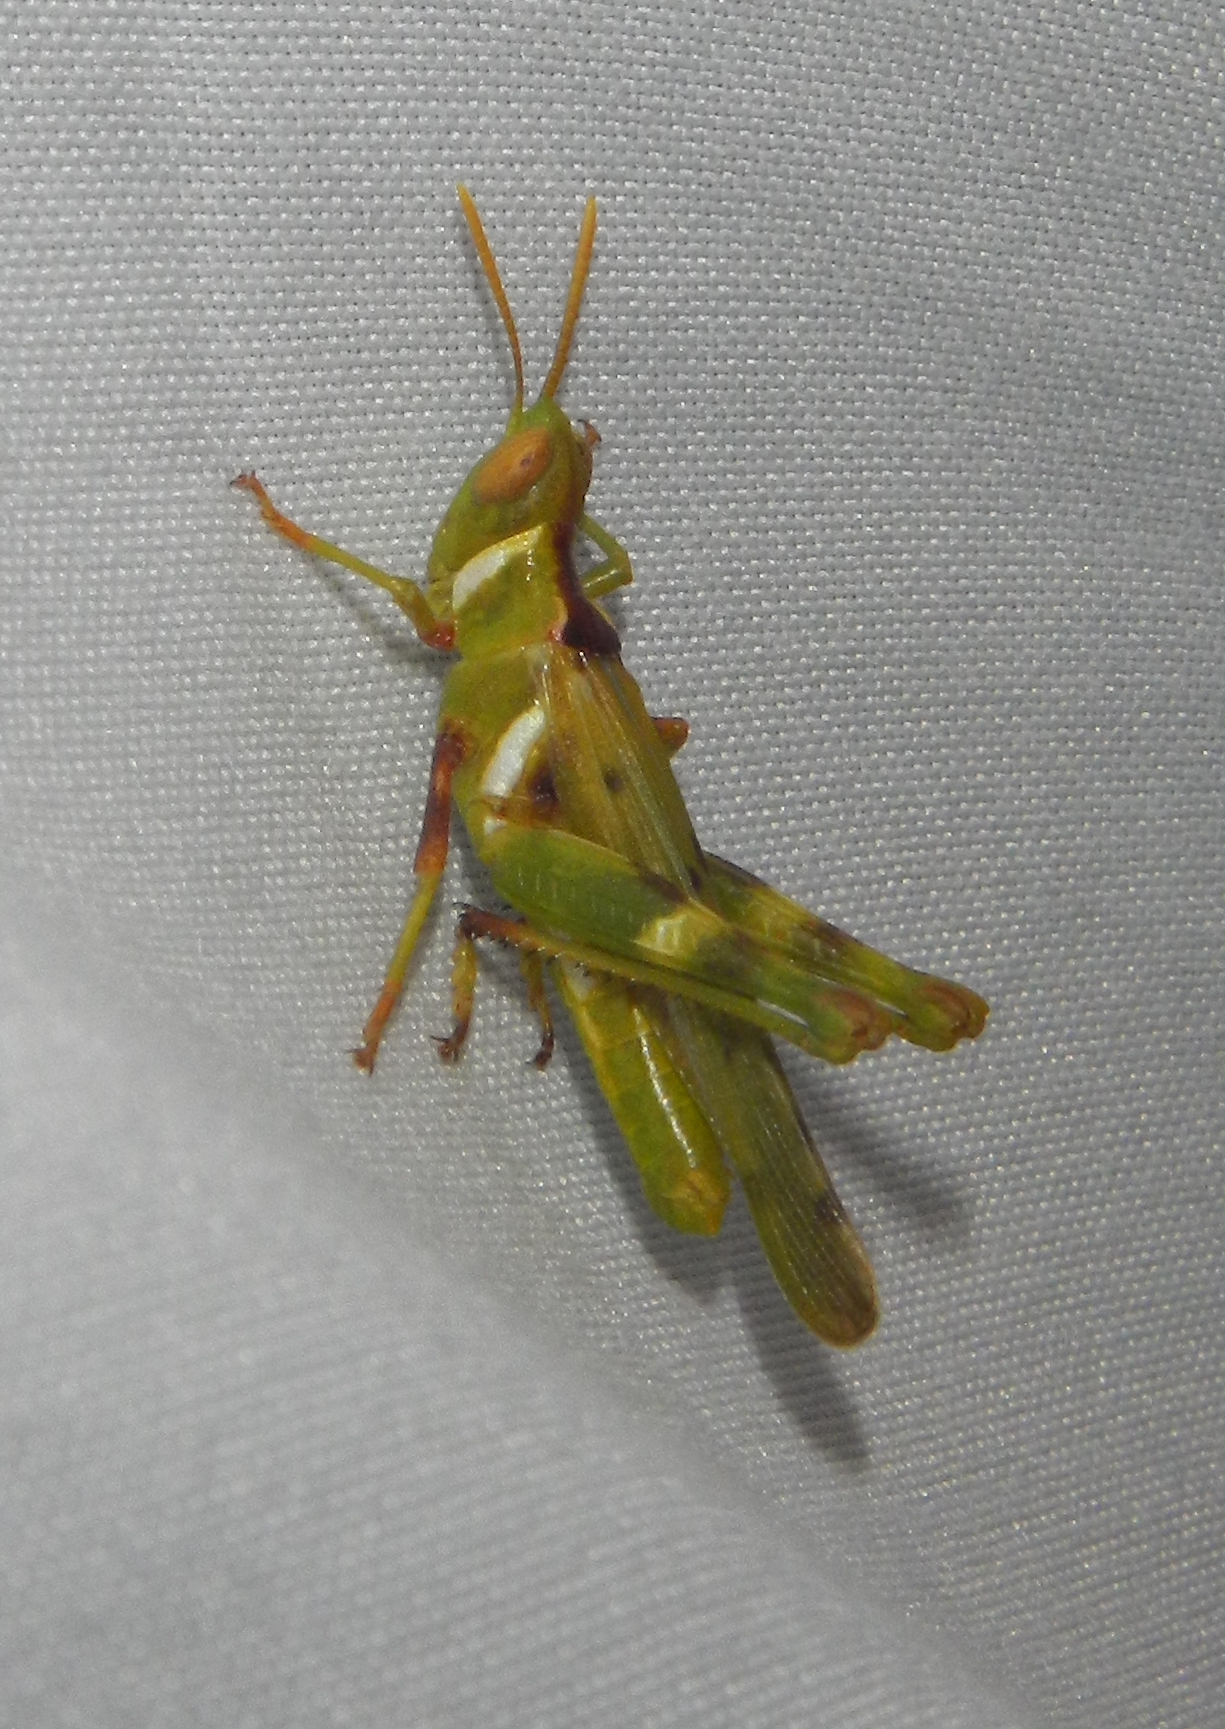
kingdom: Animalia
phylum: Arthropoda
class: Insecta
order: Orthoptera
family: Acrididae
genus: Bootettix
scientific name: Bootettix argentatus
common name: Creosote bush grasshopper
